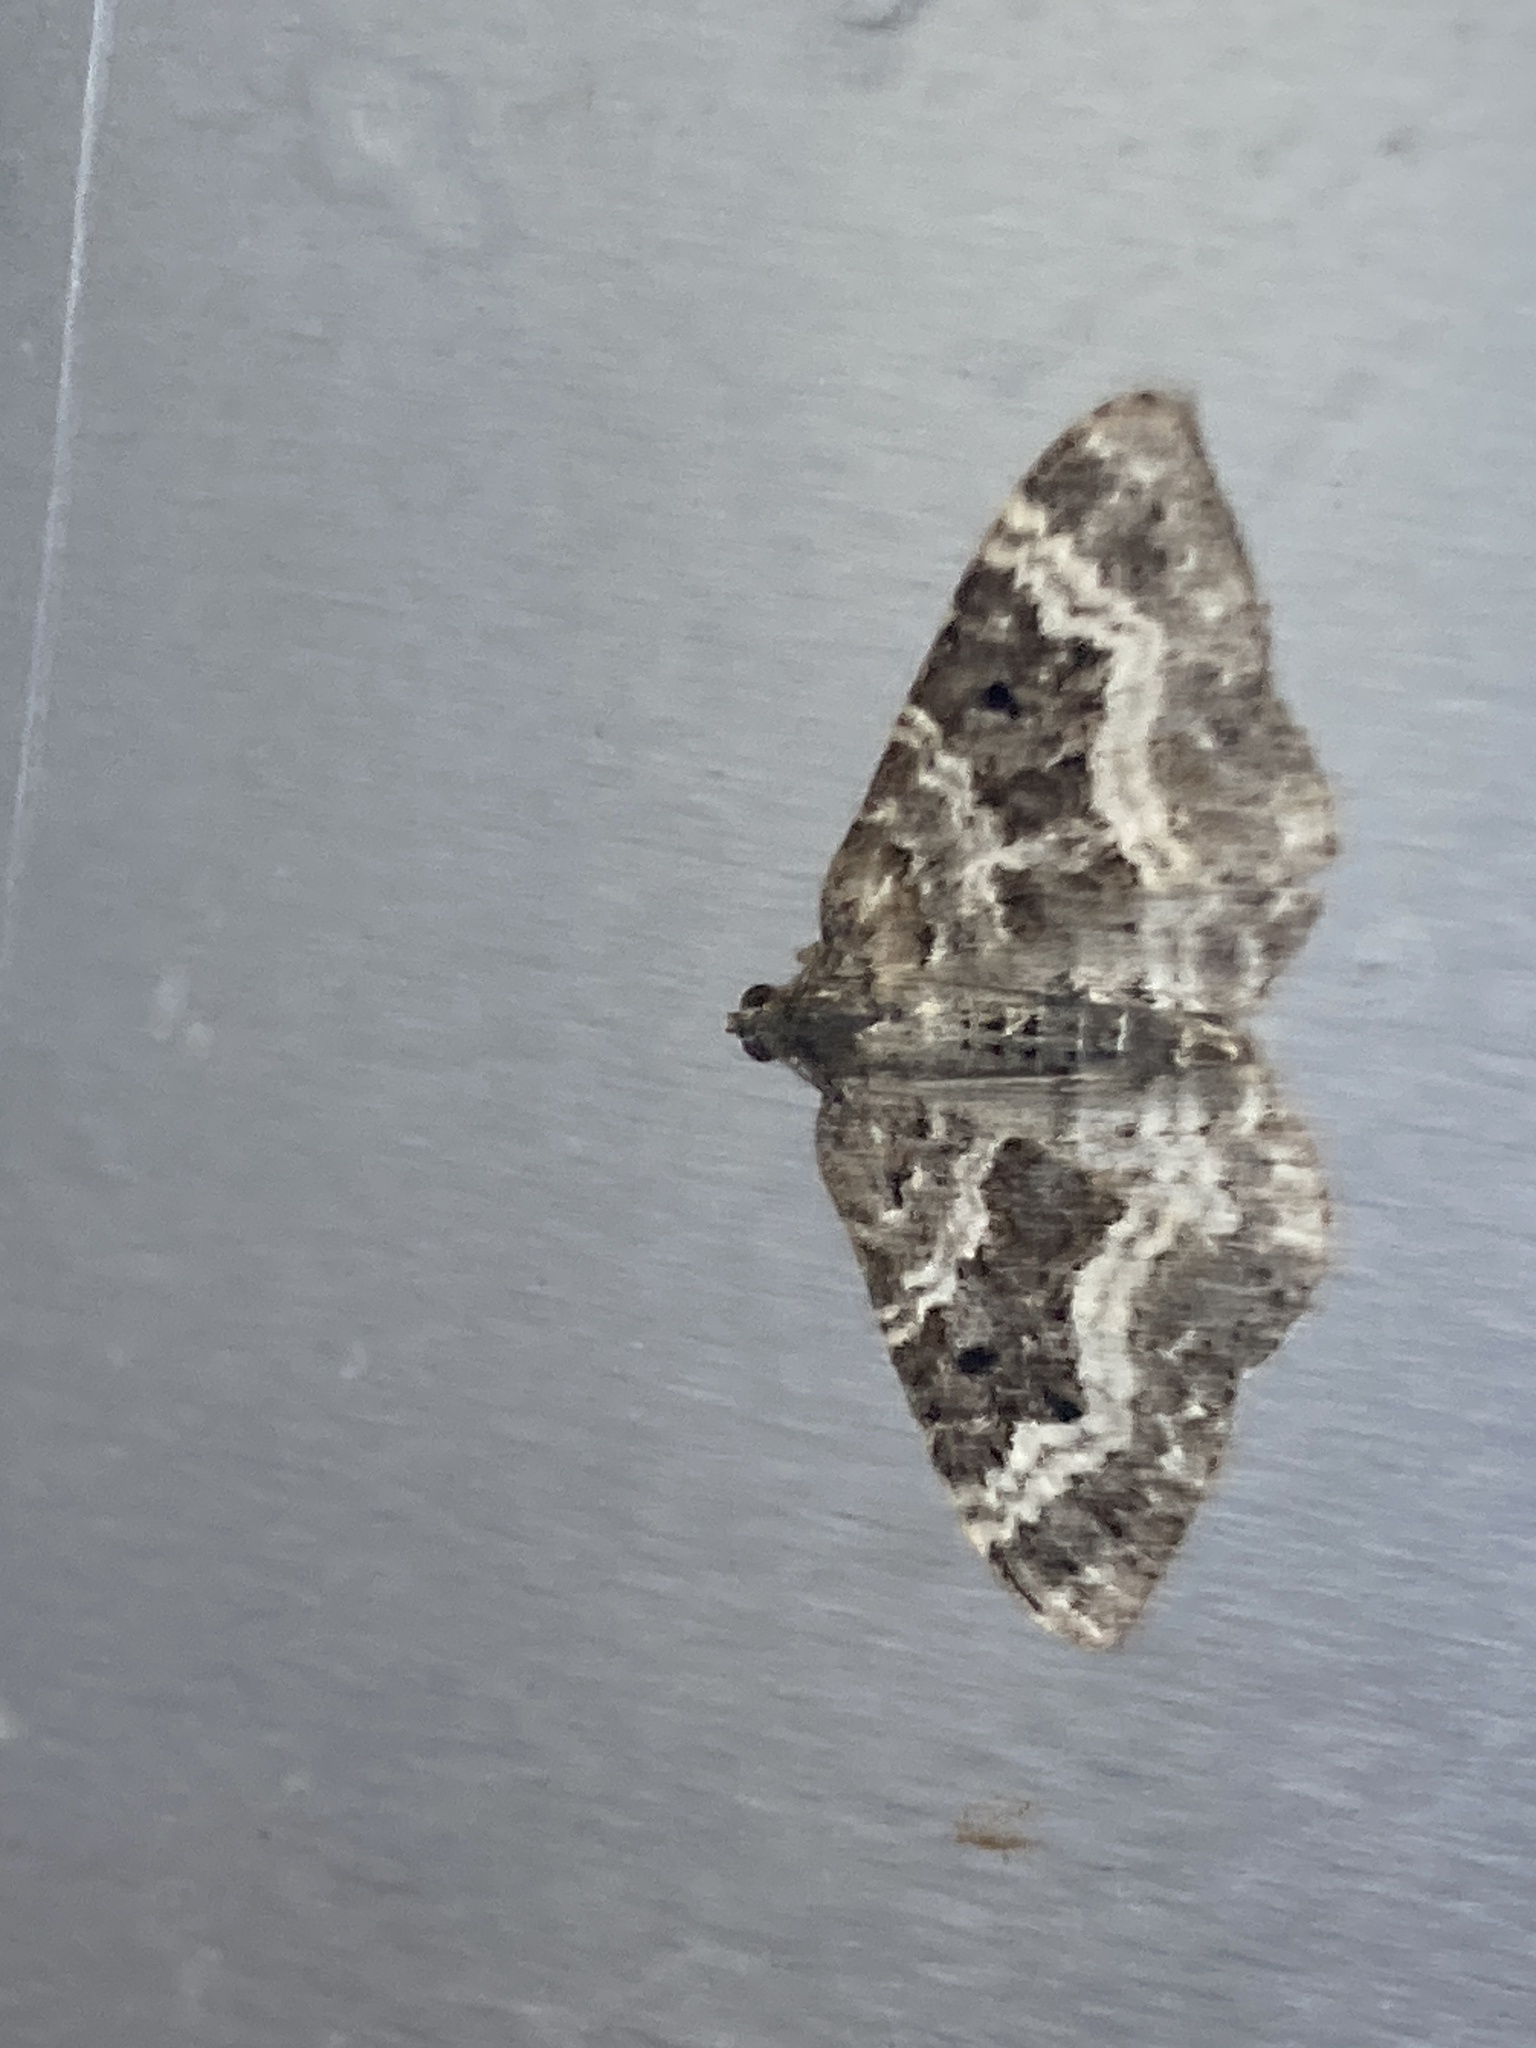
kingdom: Animalia
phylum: Arthropoda
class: Insecta
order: Lepidoptera
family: Geometridae
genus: Epirrhoe
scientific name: Epirrhoe alternata
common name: Common carpet
